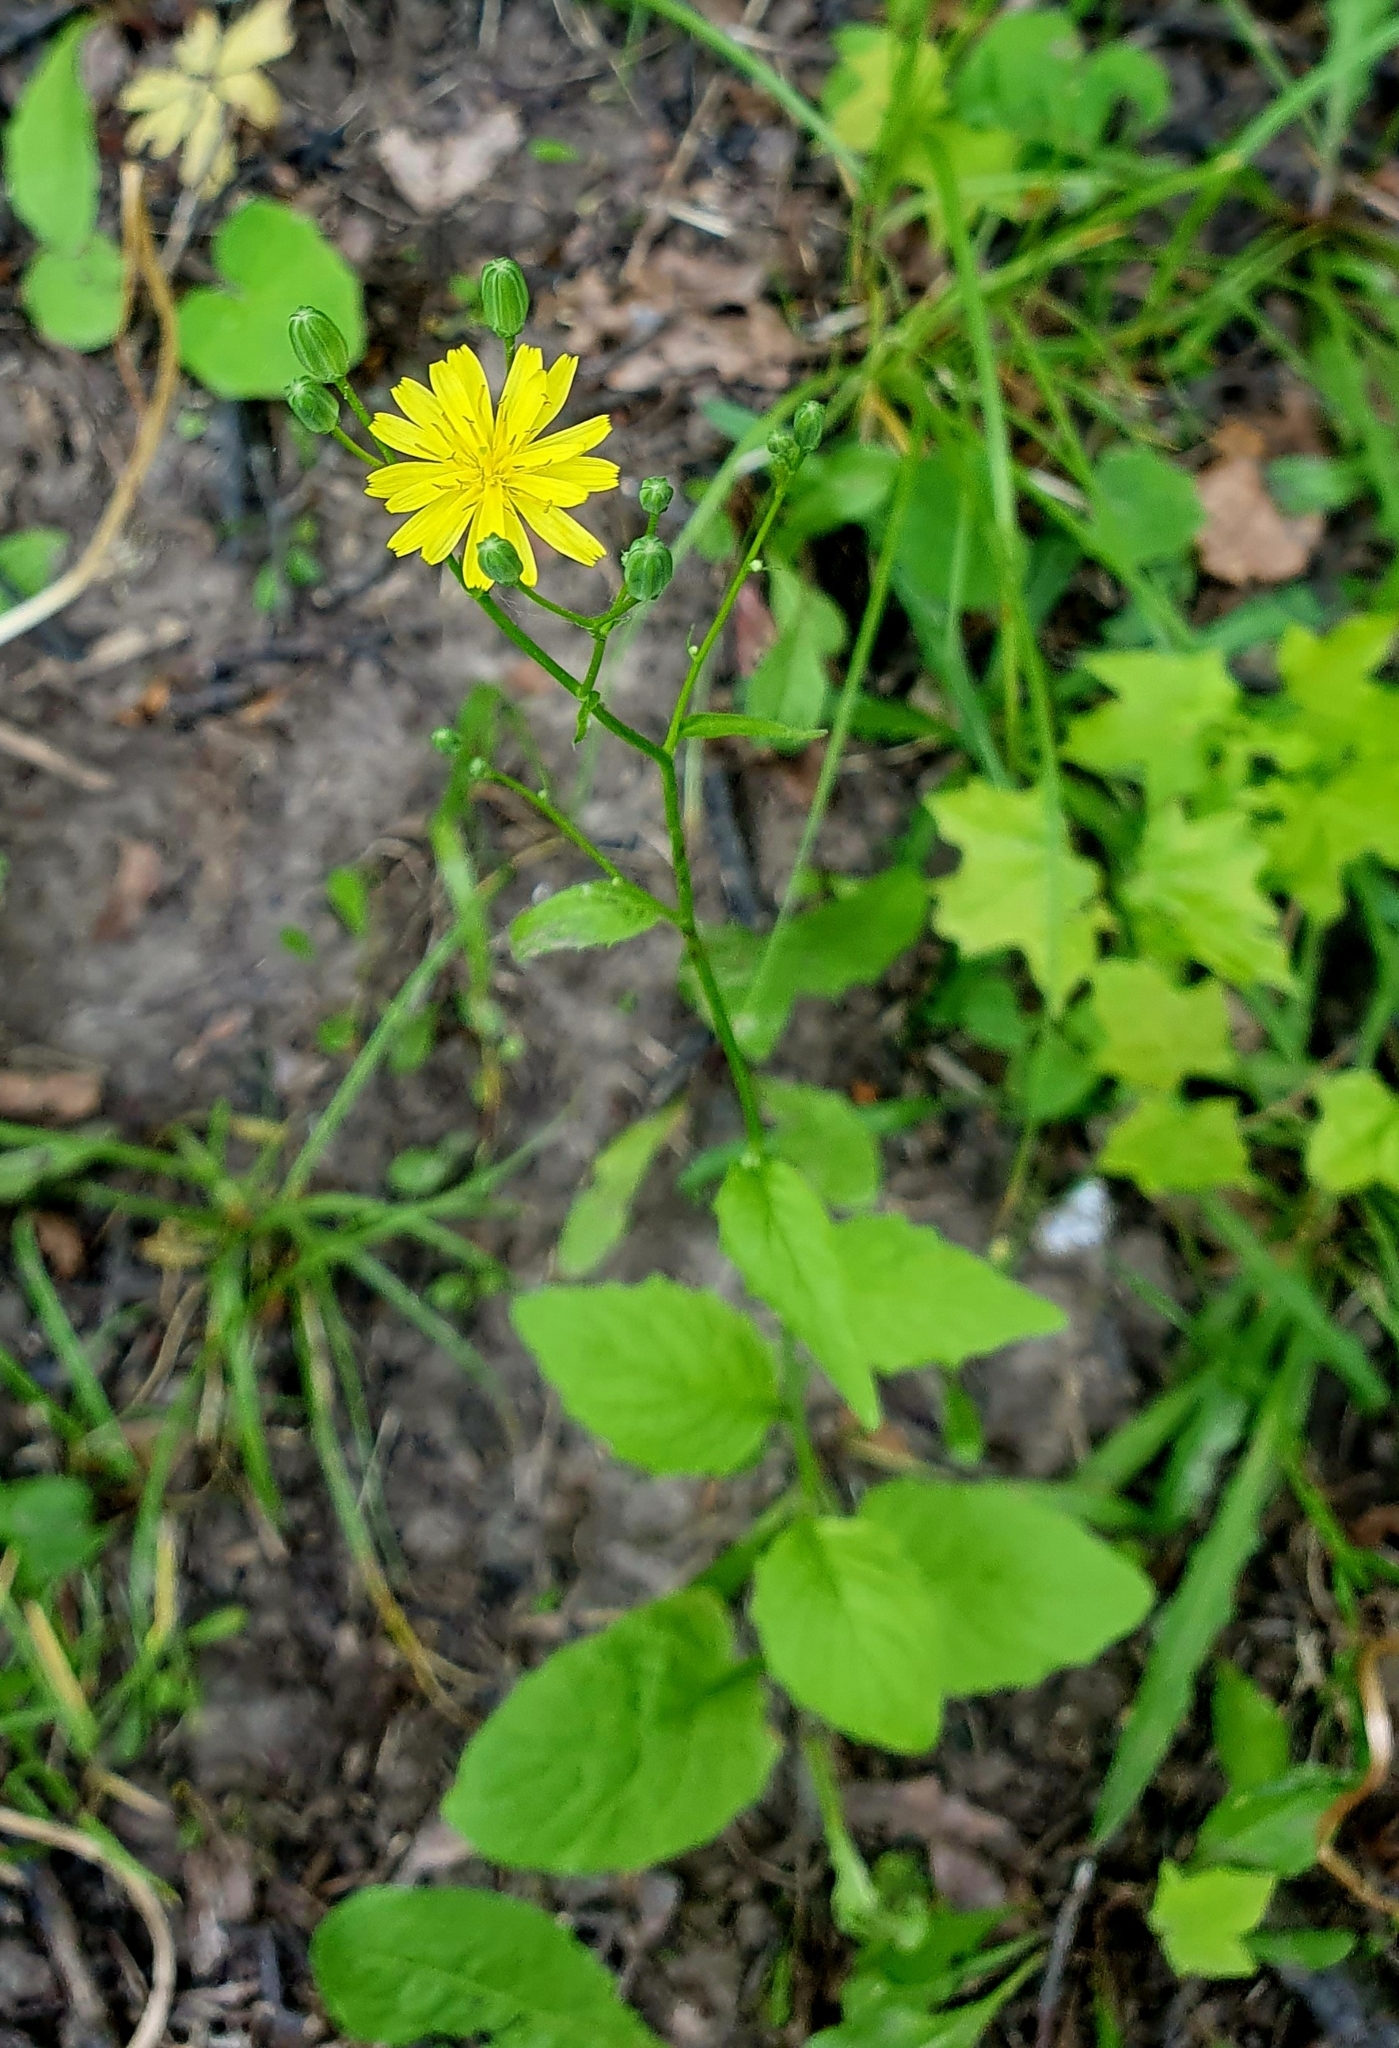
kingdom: Plantae
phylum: Tracheophyta
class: Magnoliopsida
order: Asterales
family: Asteraceae
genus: Lapsana
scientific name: Lapsana communis
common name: Nipplewort
